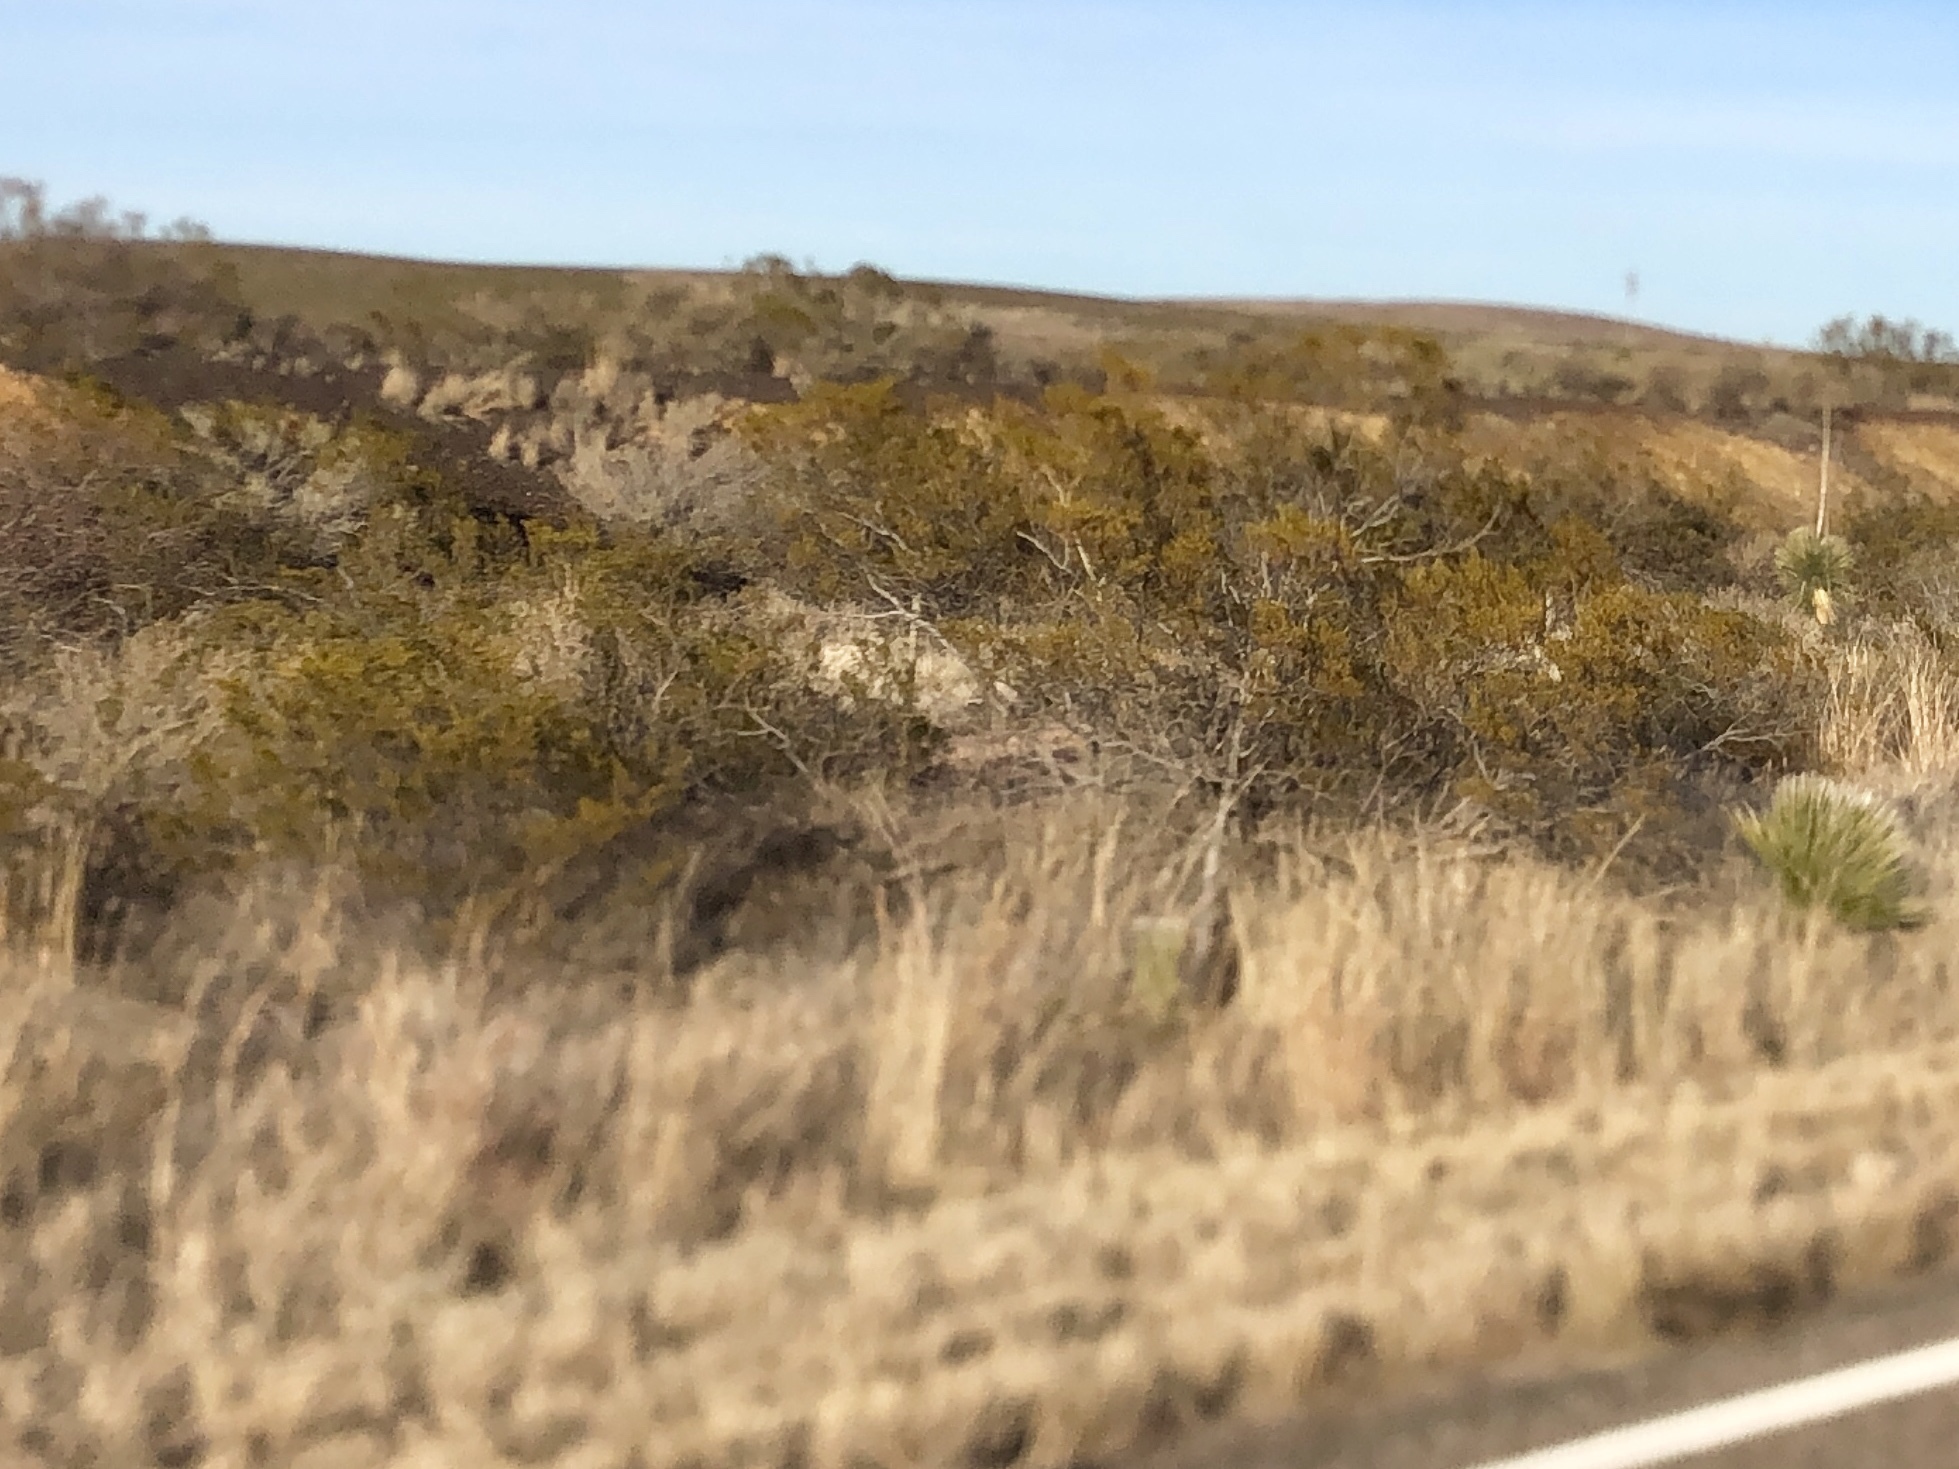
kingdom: Plantae
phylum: Tracheophyta
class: Magnoliopsida
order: Zygophyllales
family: Zygophyllaceae
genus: Larrea
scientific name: Larrea tridentata
